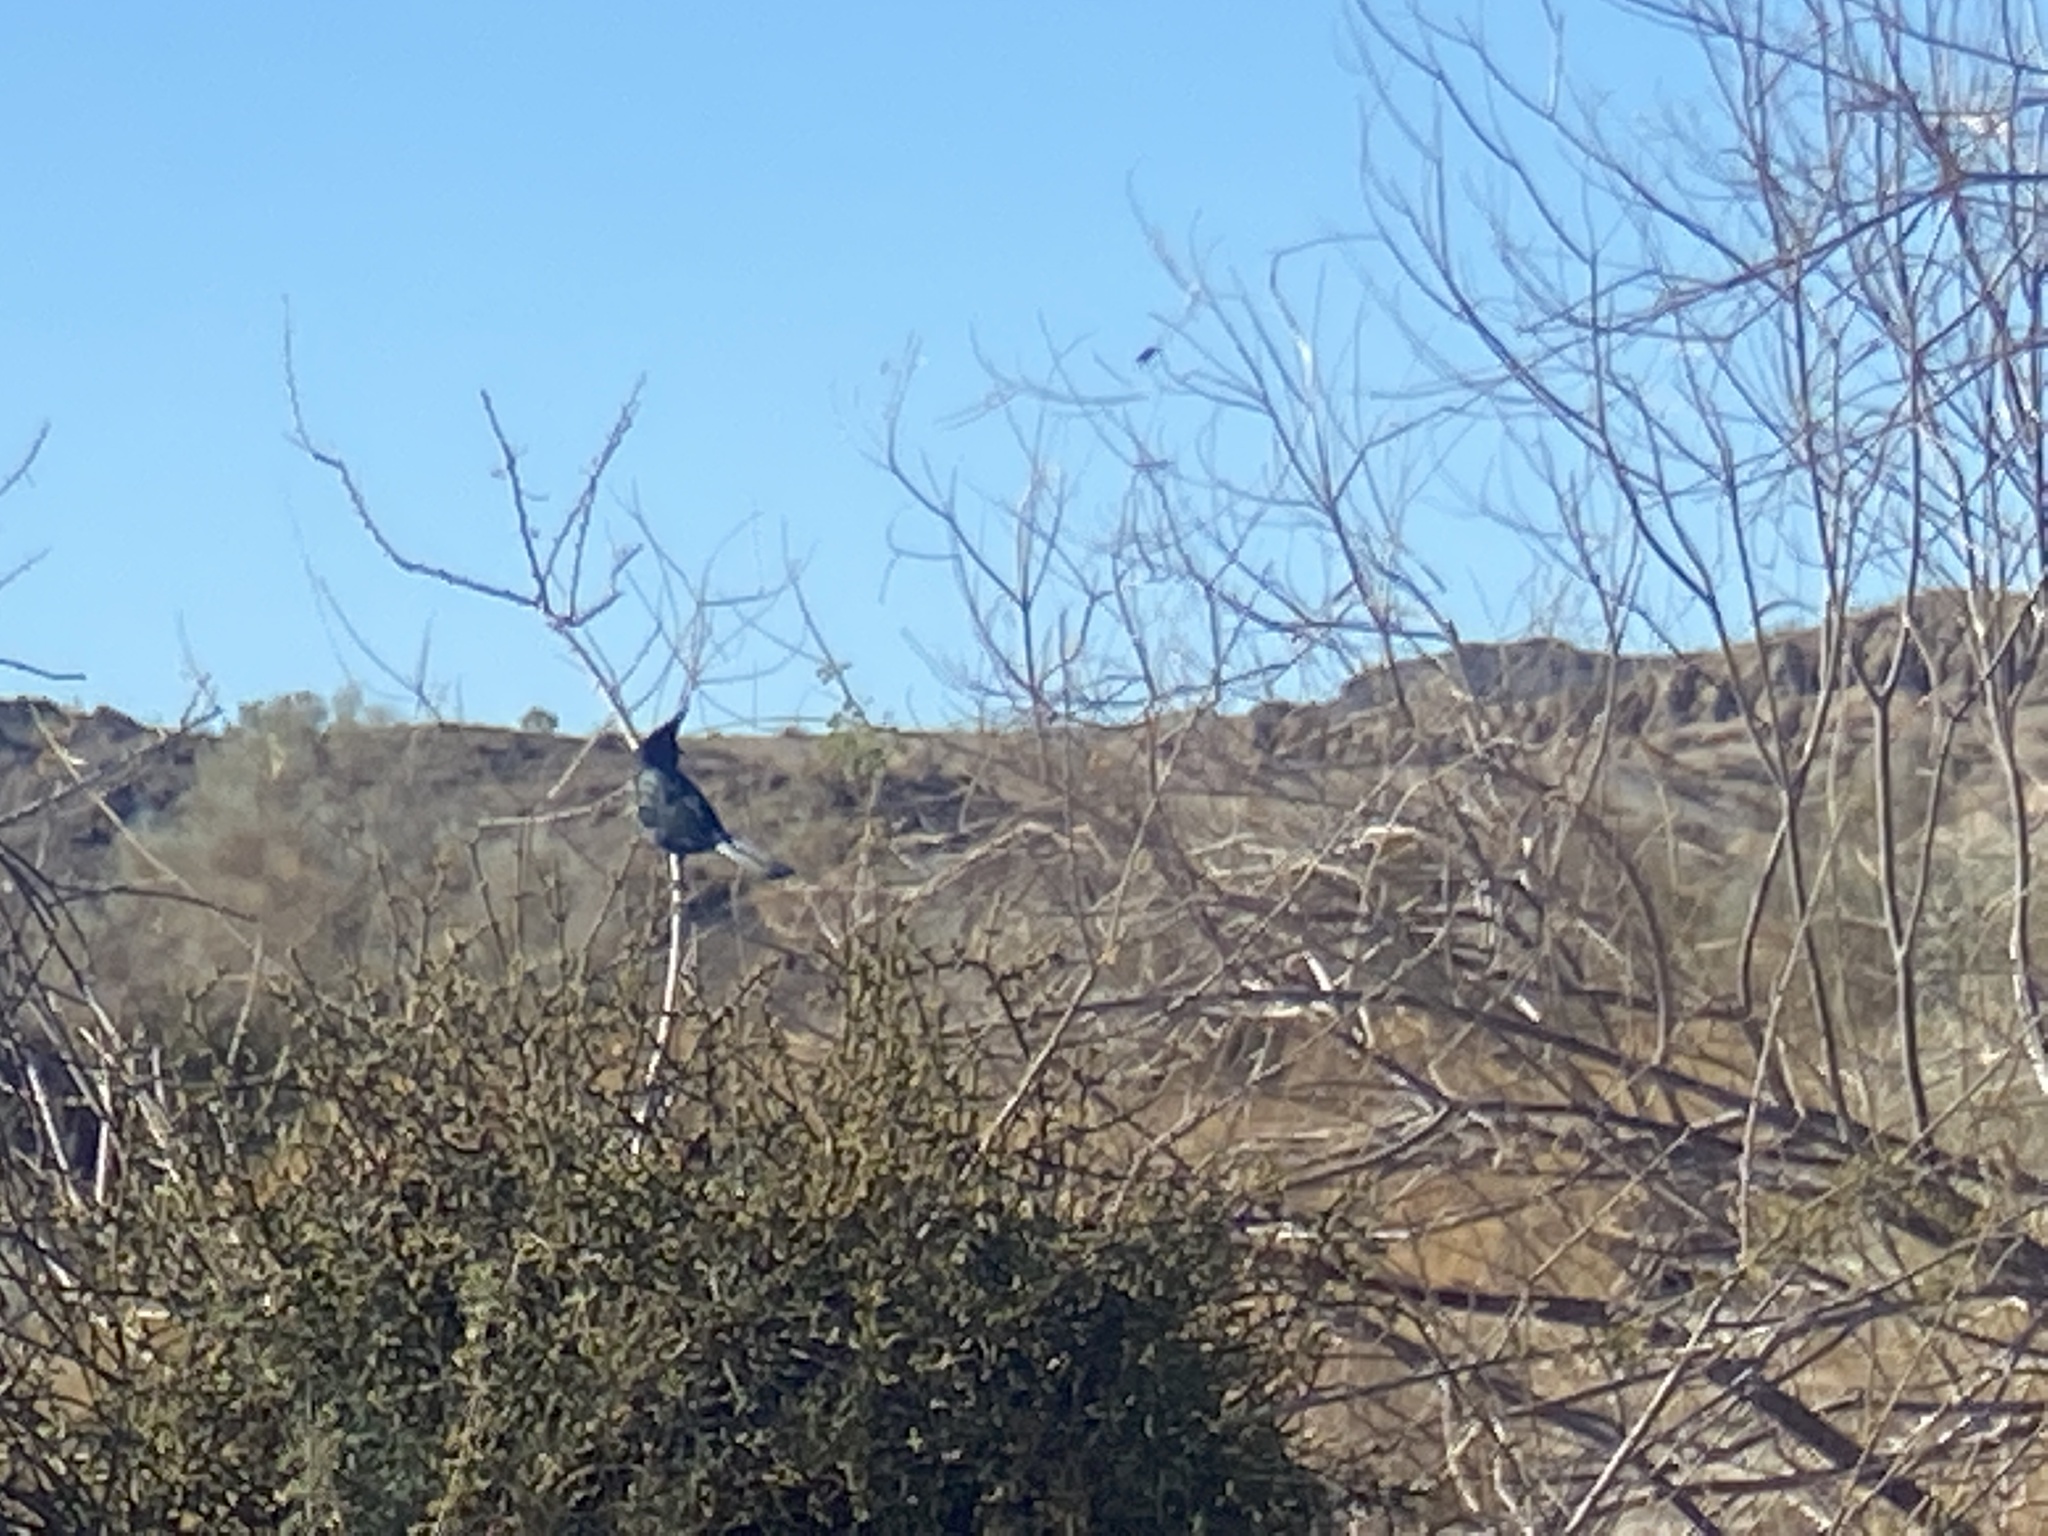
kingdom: Animalia
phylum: Chordata
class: Aves
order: Passeriformes
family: Ptilogonatidae
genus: Phainopepla
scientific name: Phainopepla nitens
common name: Phainopepla
